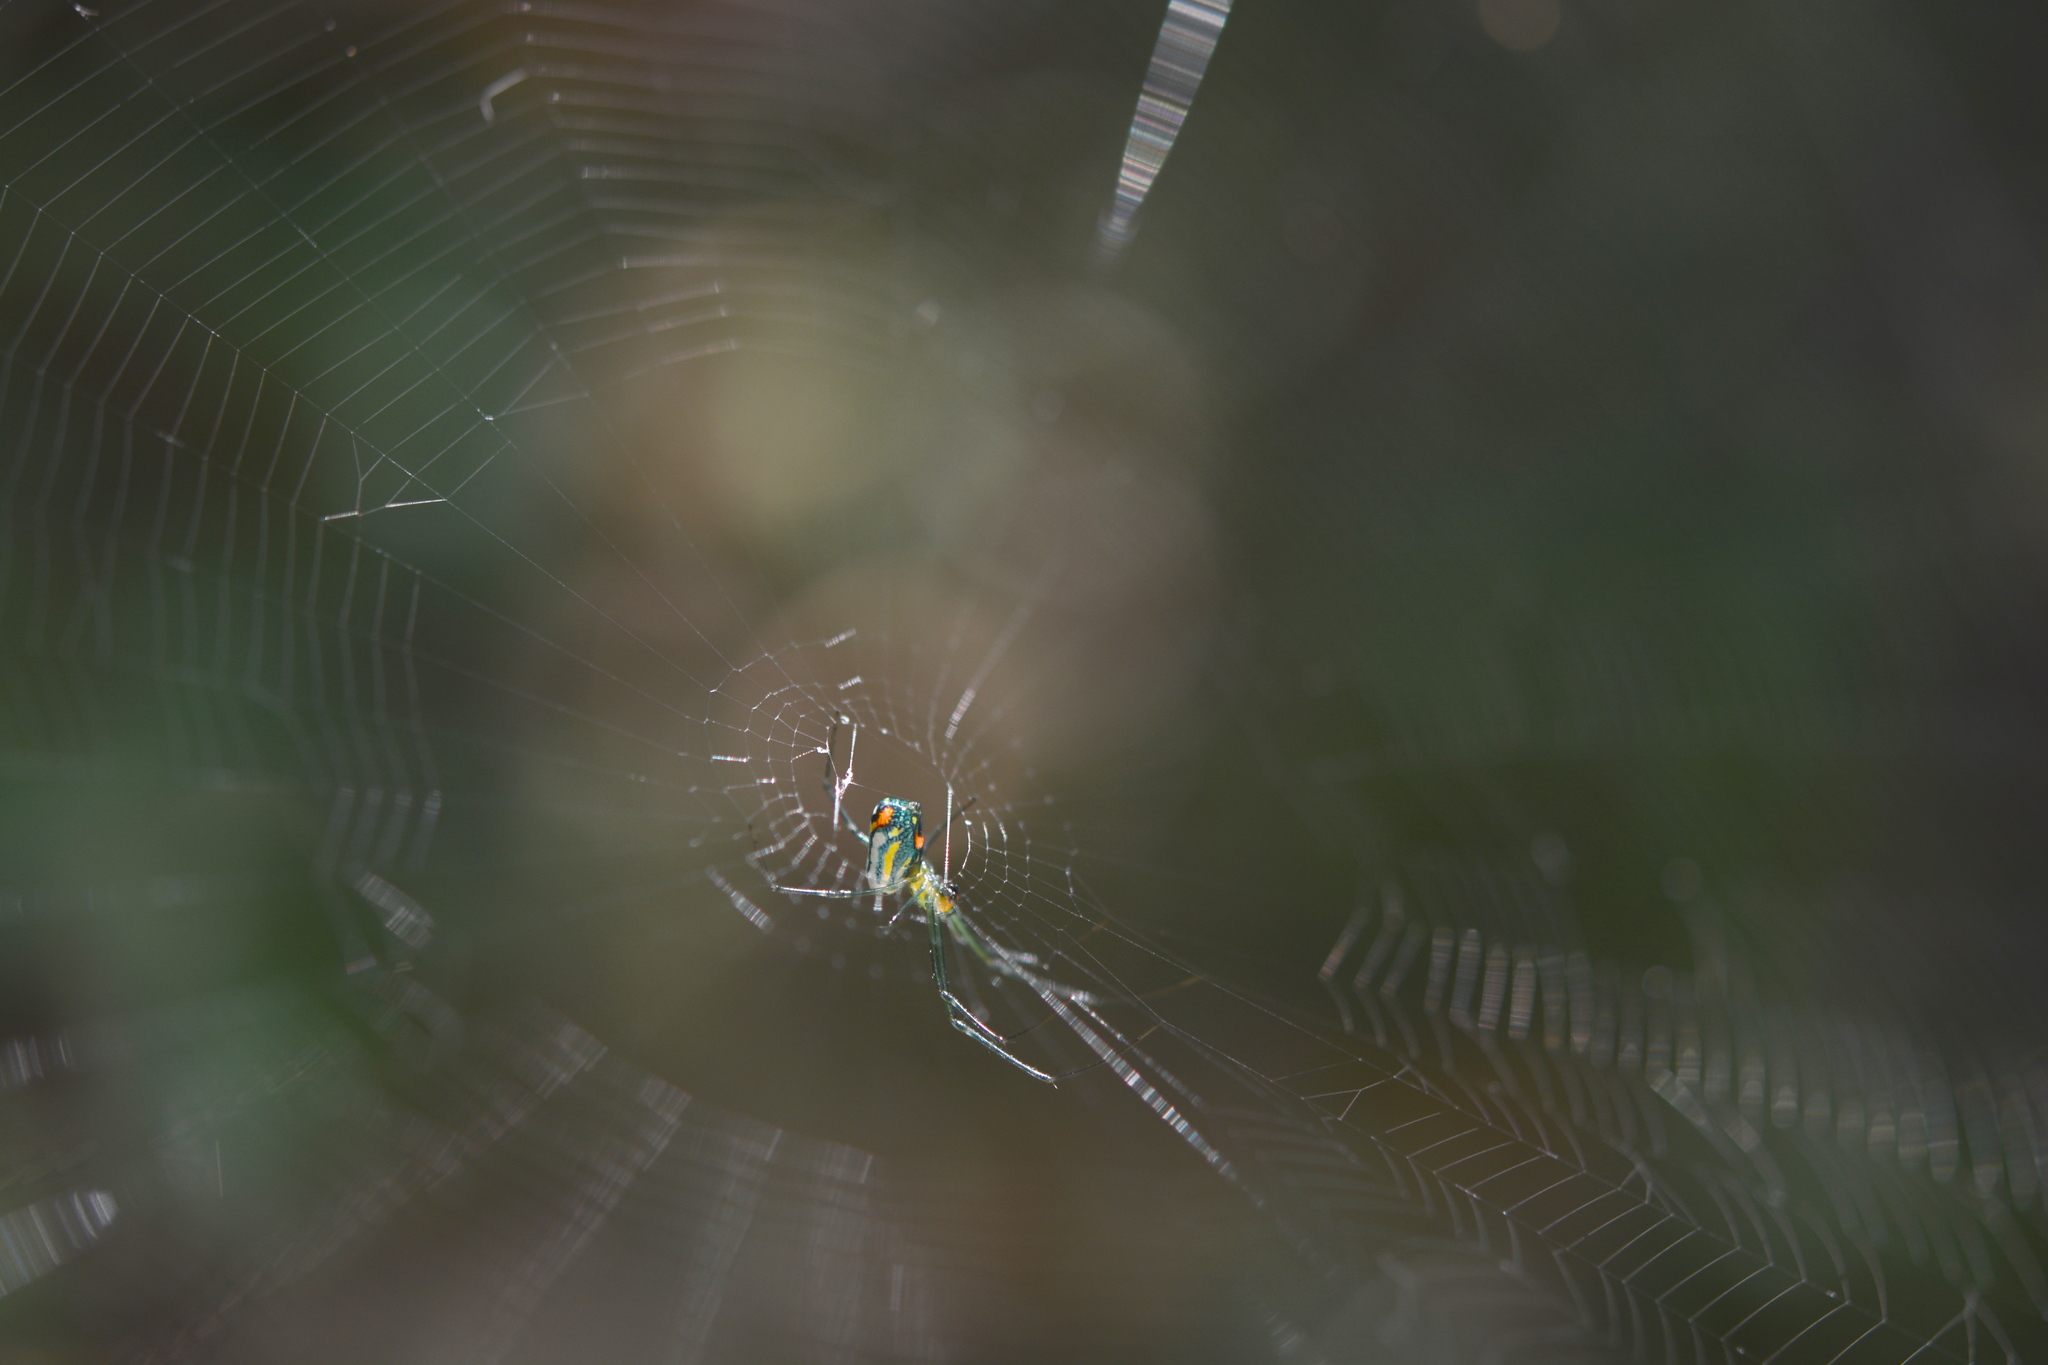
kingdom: Animalia
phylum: Arthropoda
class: Arachnida
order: Araneae
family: Tetragnathidae
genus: Leucauge
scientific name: Leucauge argyrobapta
